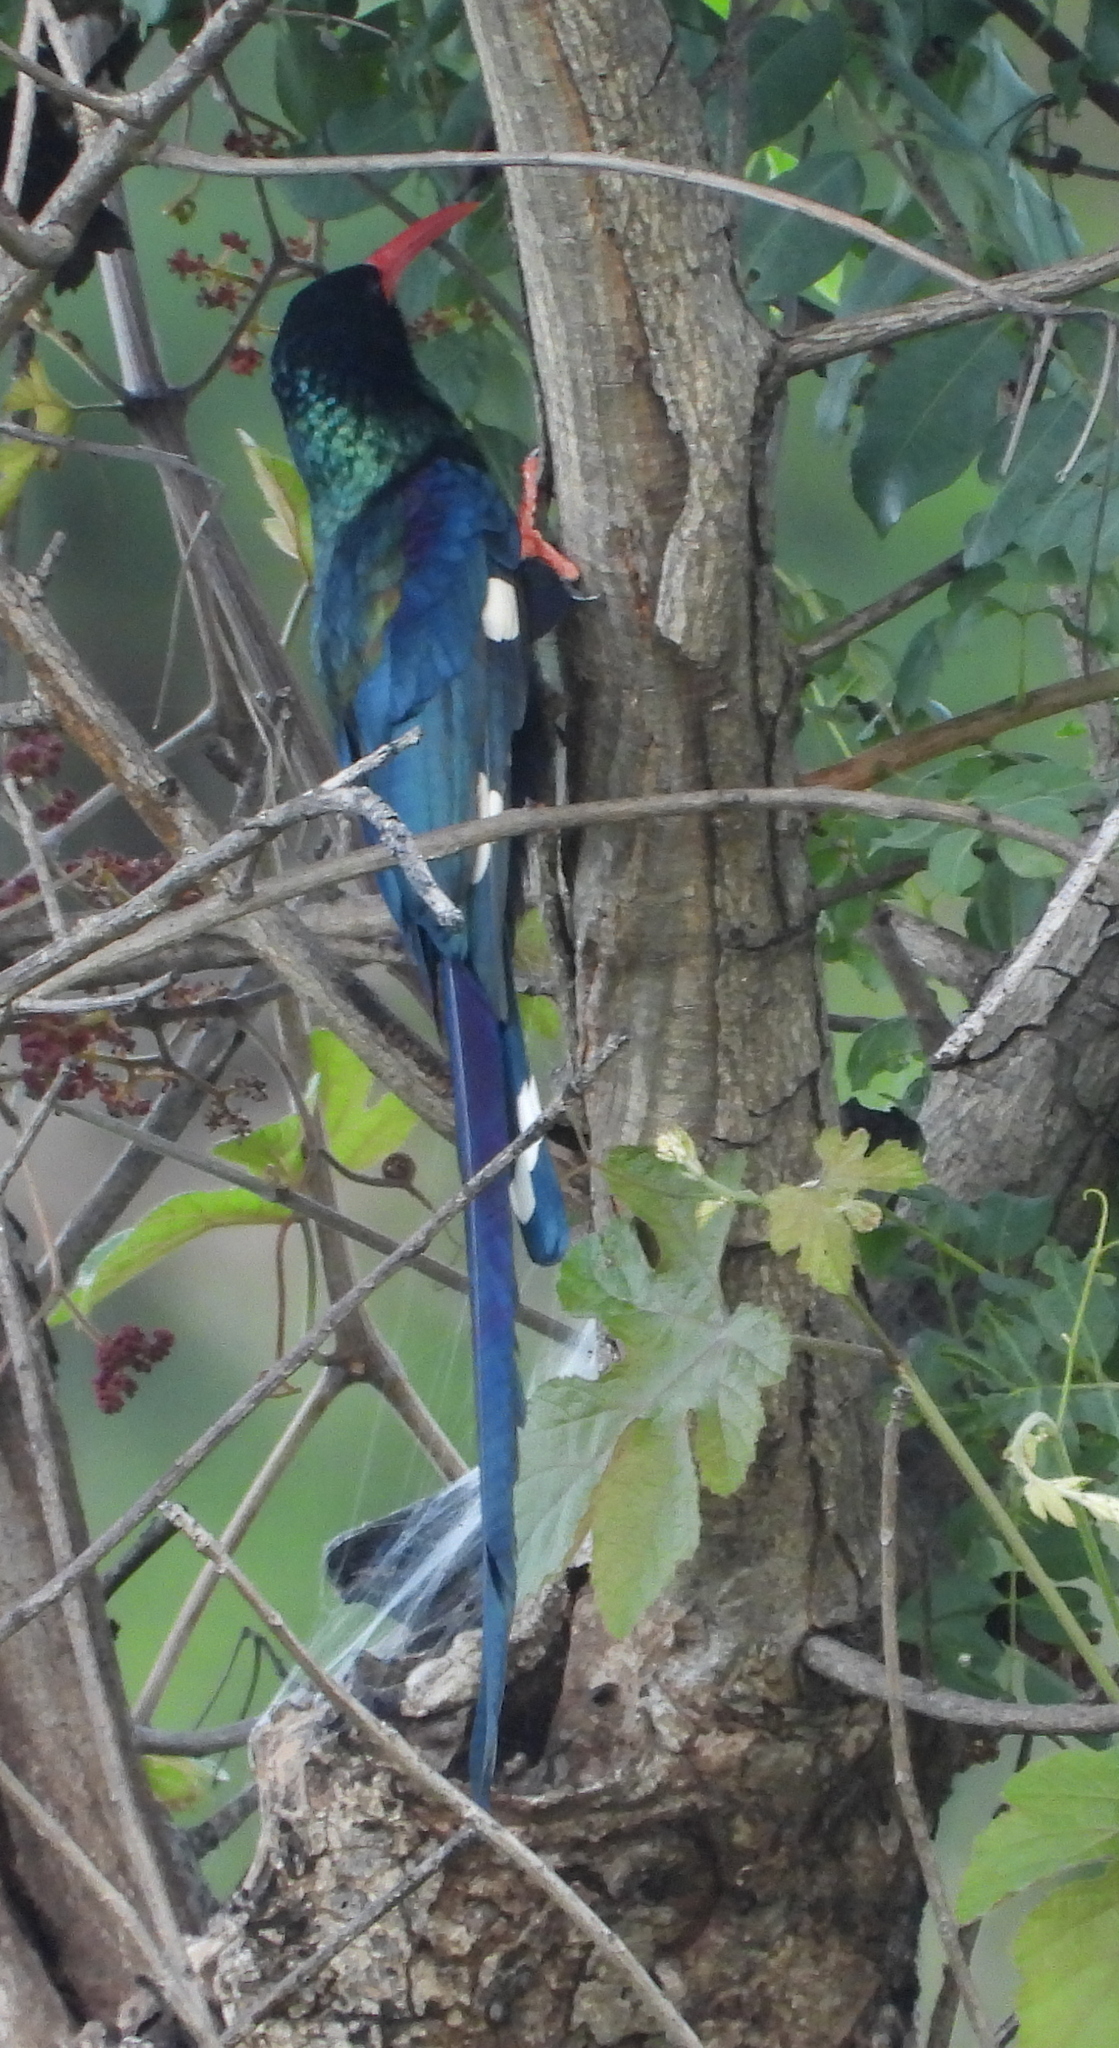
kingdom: Animalia
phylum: Chordata
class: Aves
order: Bucerotiformes
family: Phoeniculidae
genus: Phoeniculus
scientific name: Phoeniculus purpureus
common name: Green woodhoopoe
